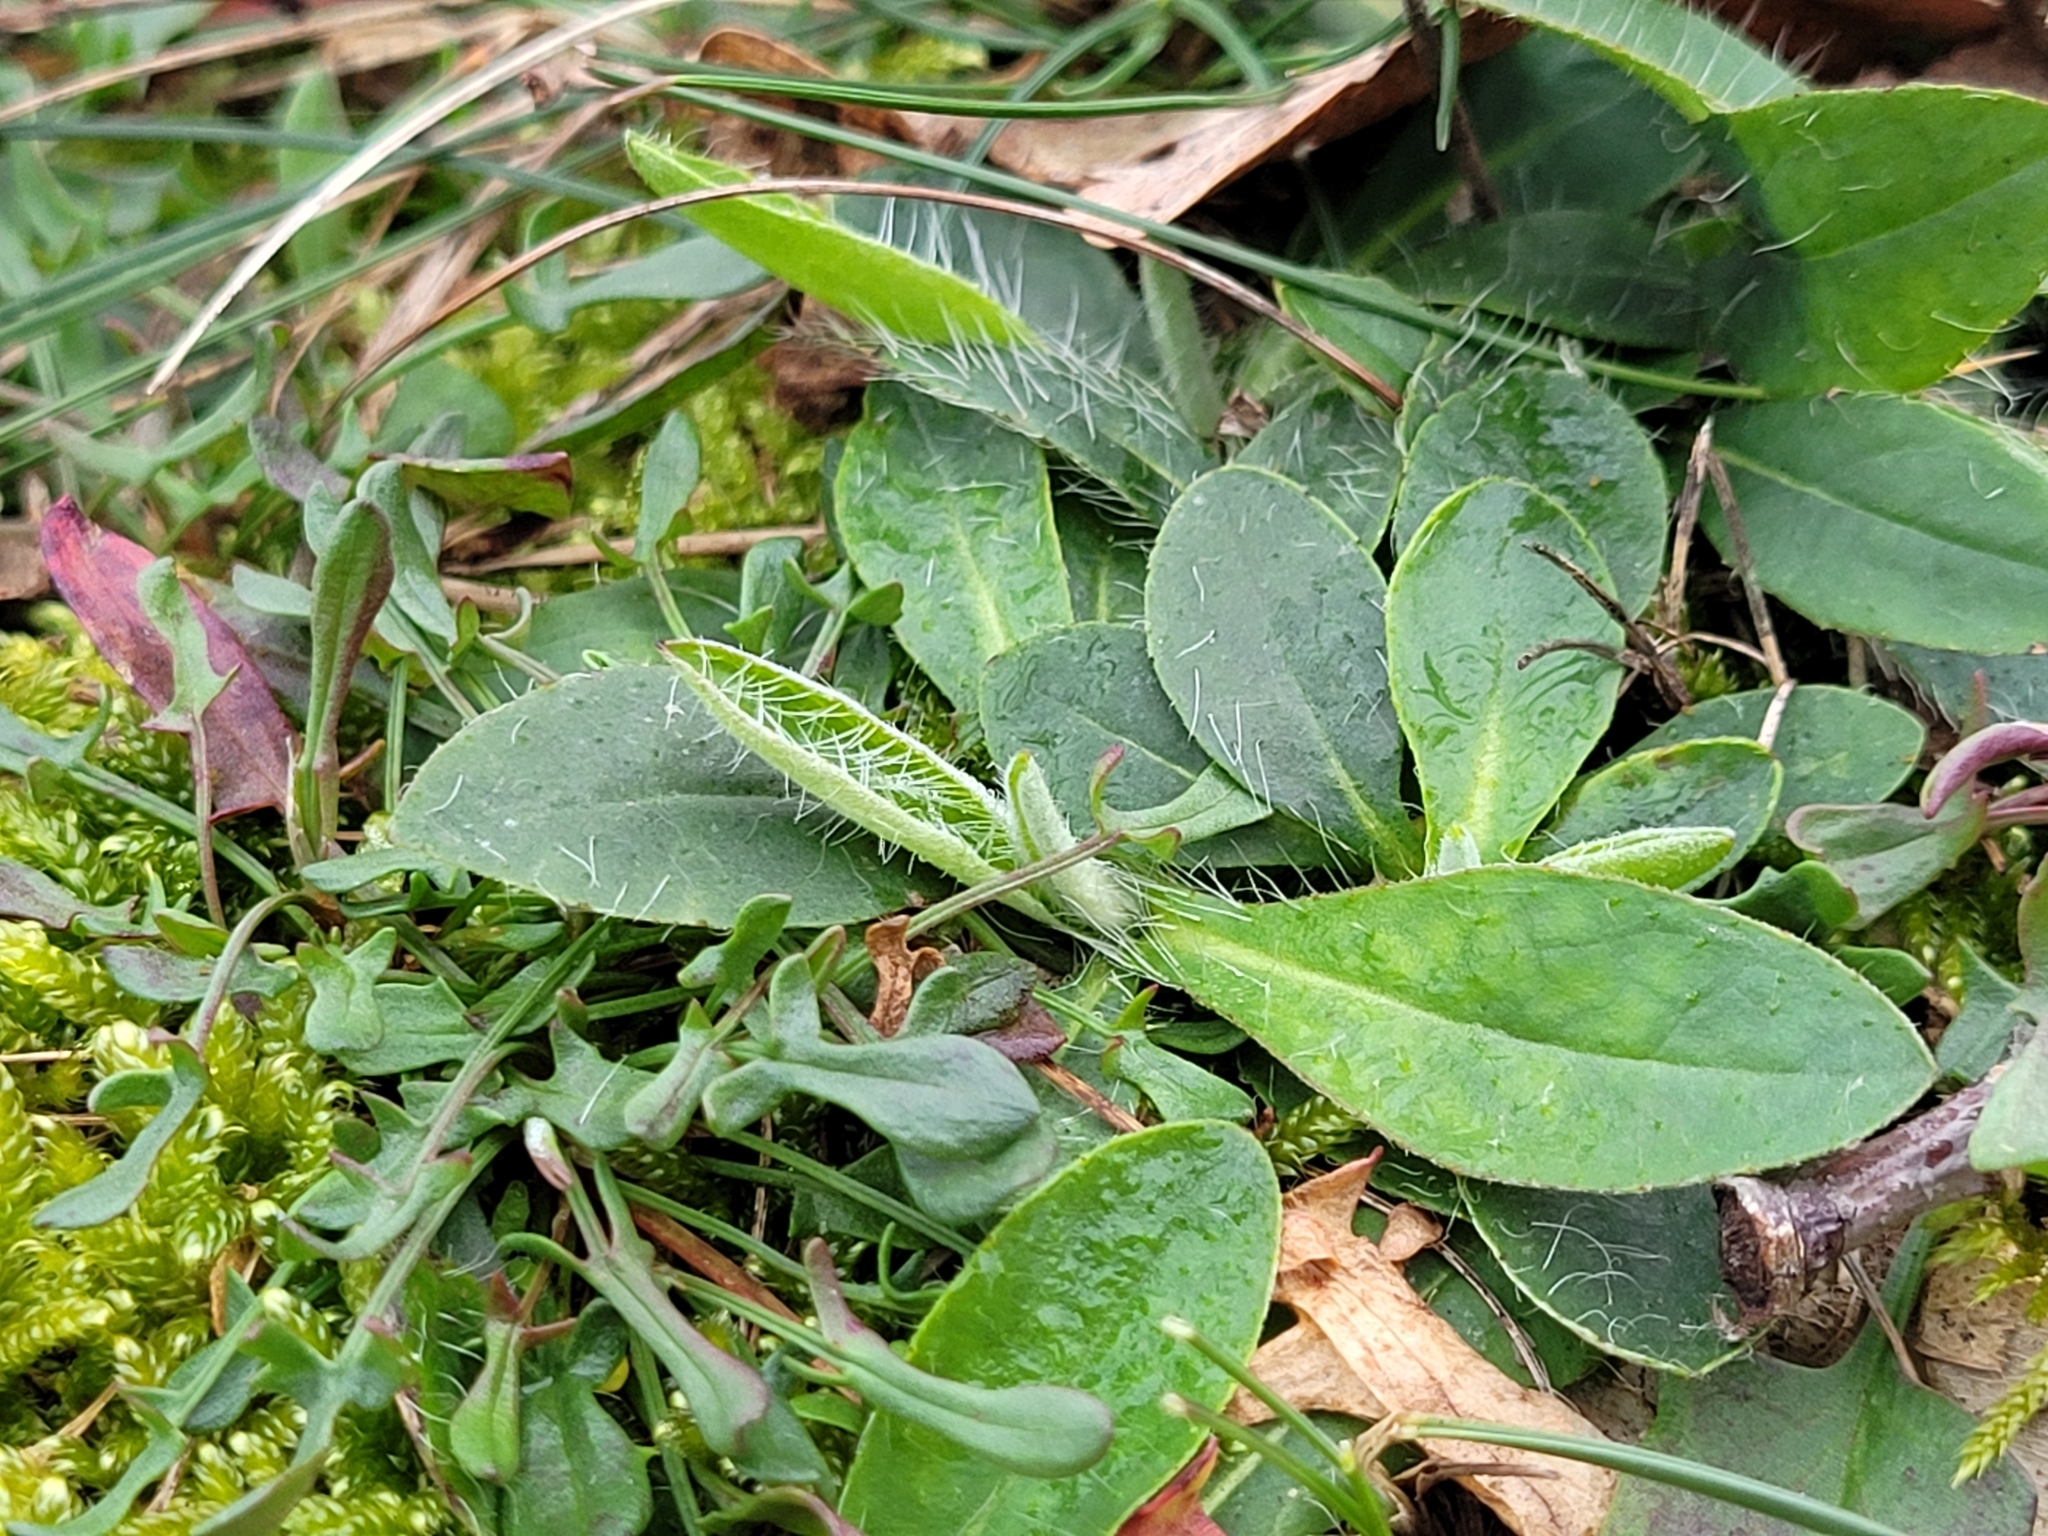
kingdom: Plantae
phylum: Tracheophyta
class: Magnoliopsida
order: Asterales
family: Asteraceae
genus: Pilosella
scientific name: Pilosella officinarum
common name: Mouse-ear hawkweed
